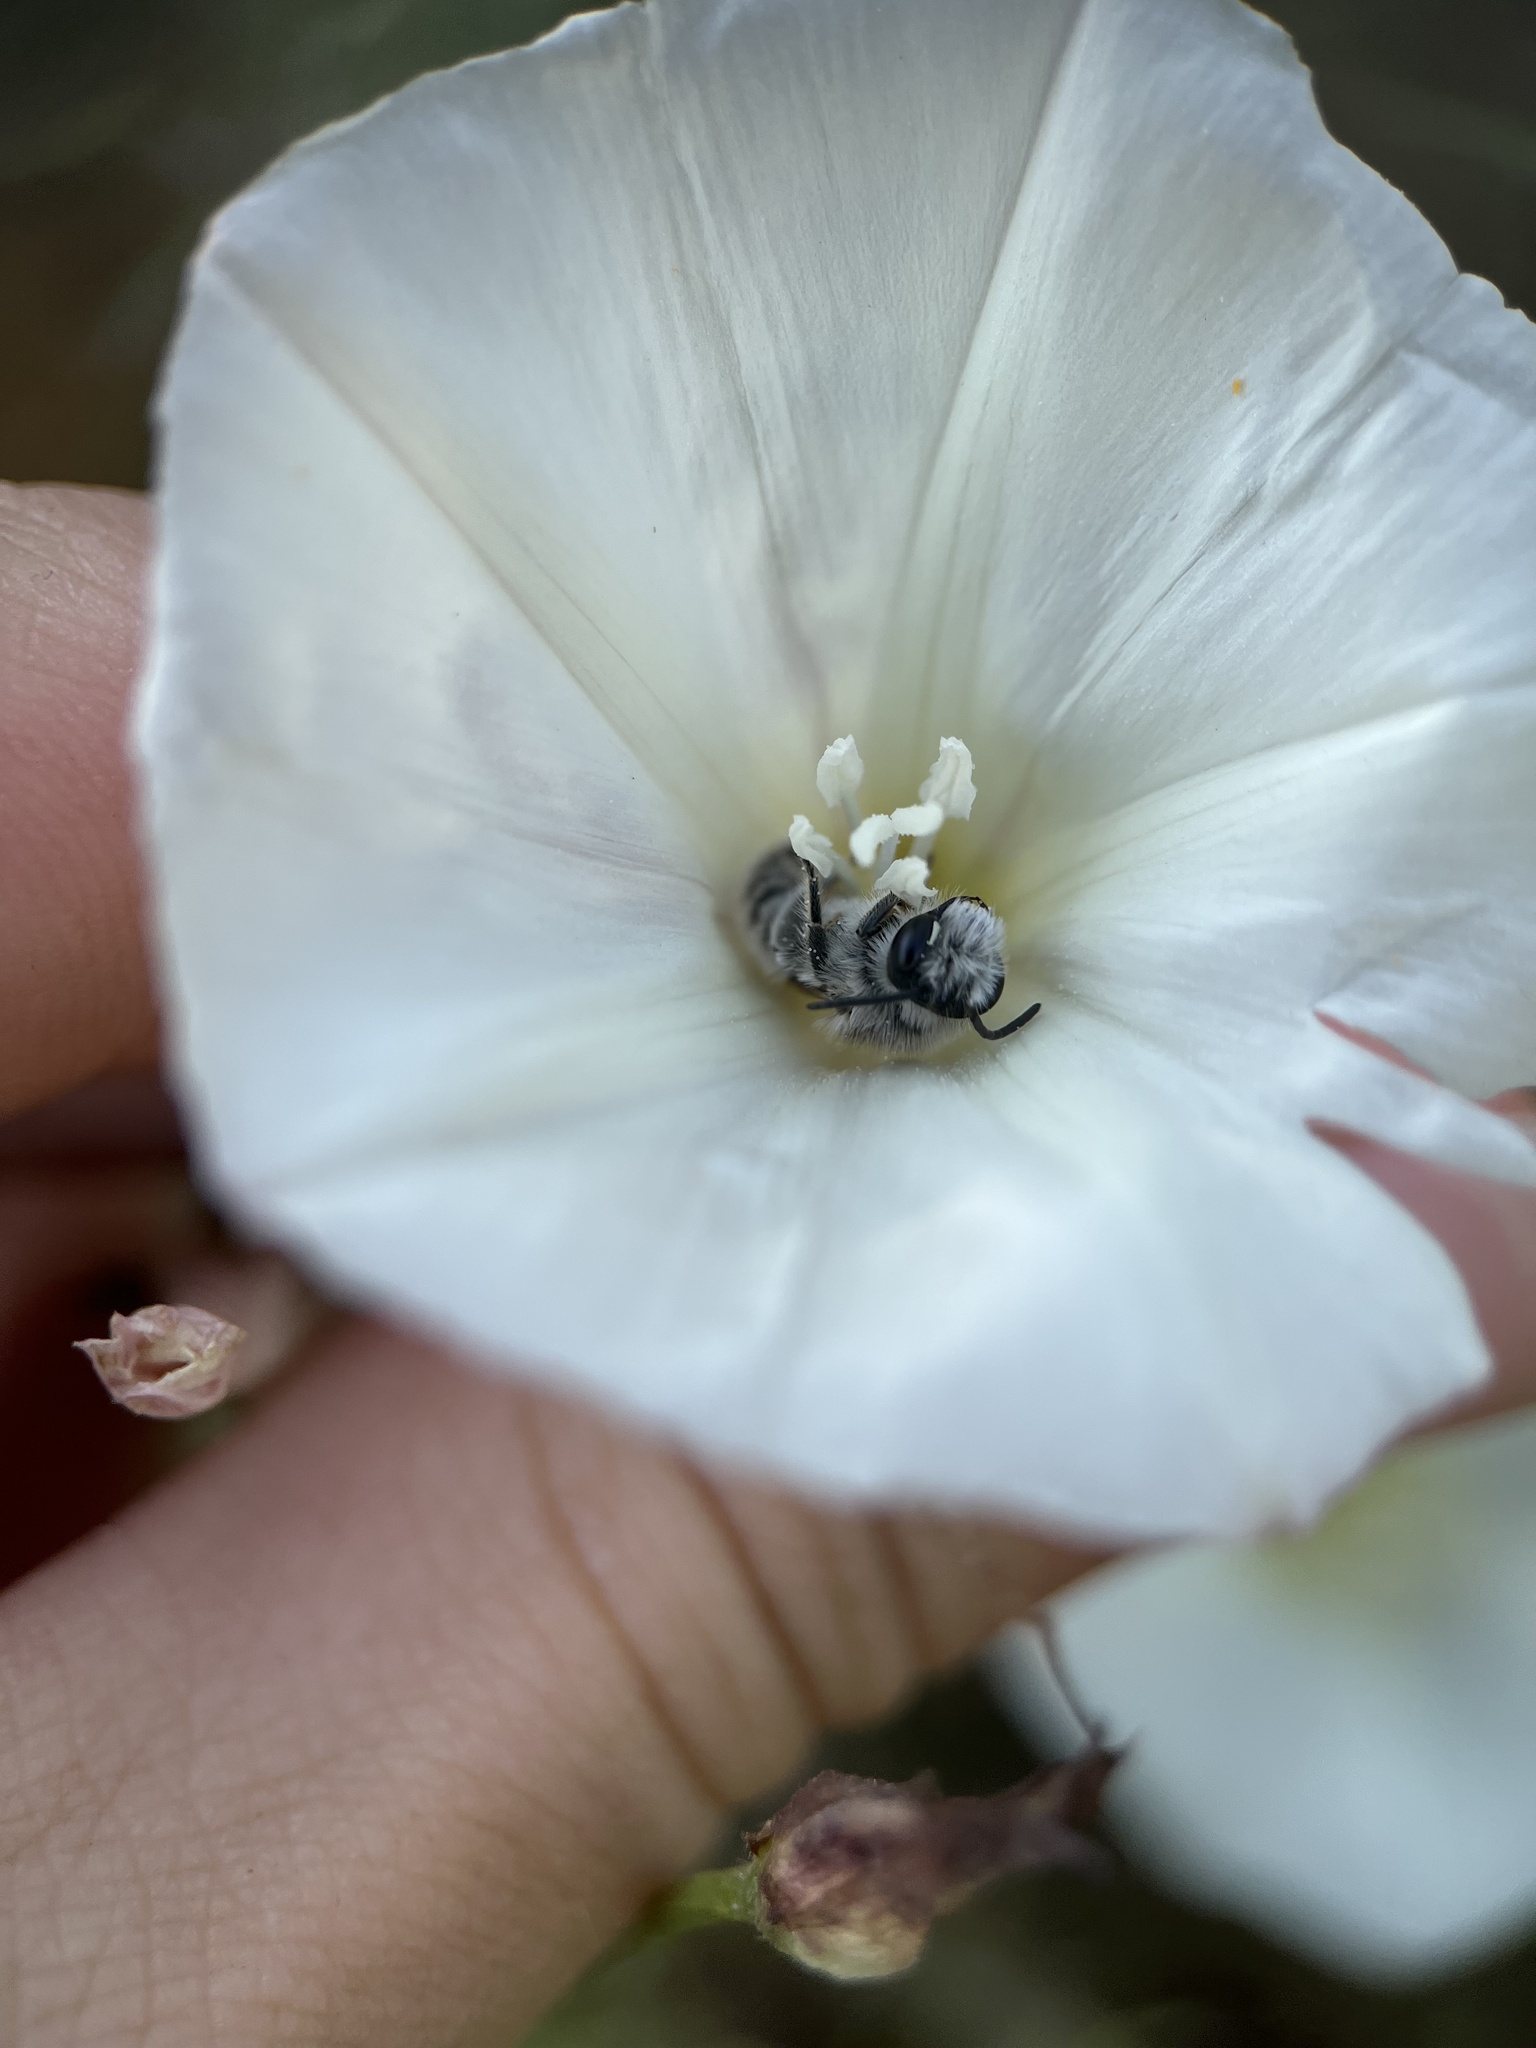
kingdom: Animalia
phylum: Arthropoda
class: Insecta
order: Hymenoptera
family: Andrenidae
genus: Ancylandrena
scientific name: Ancylandrena atoposoma
